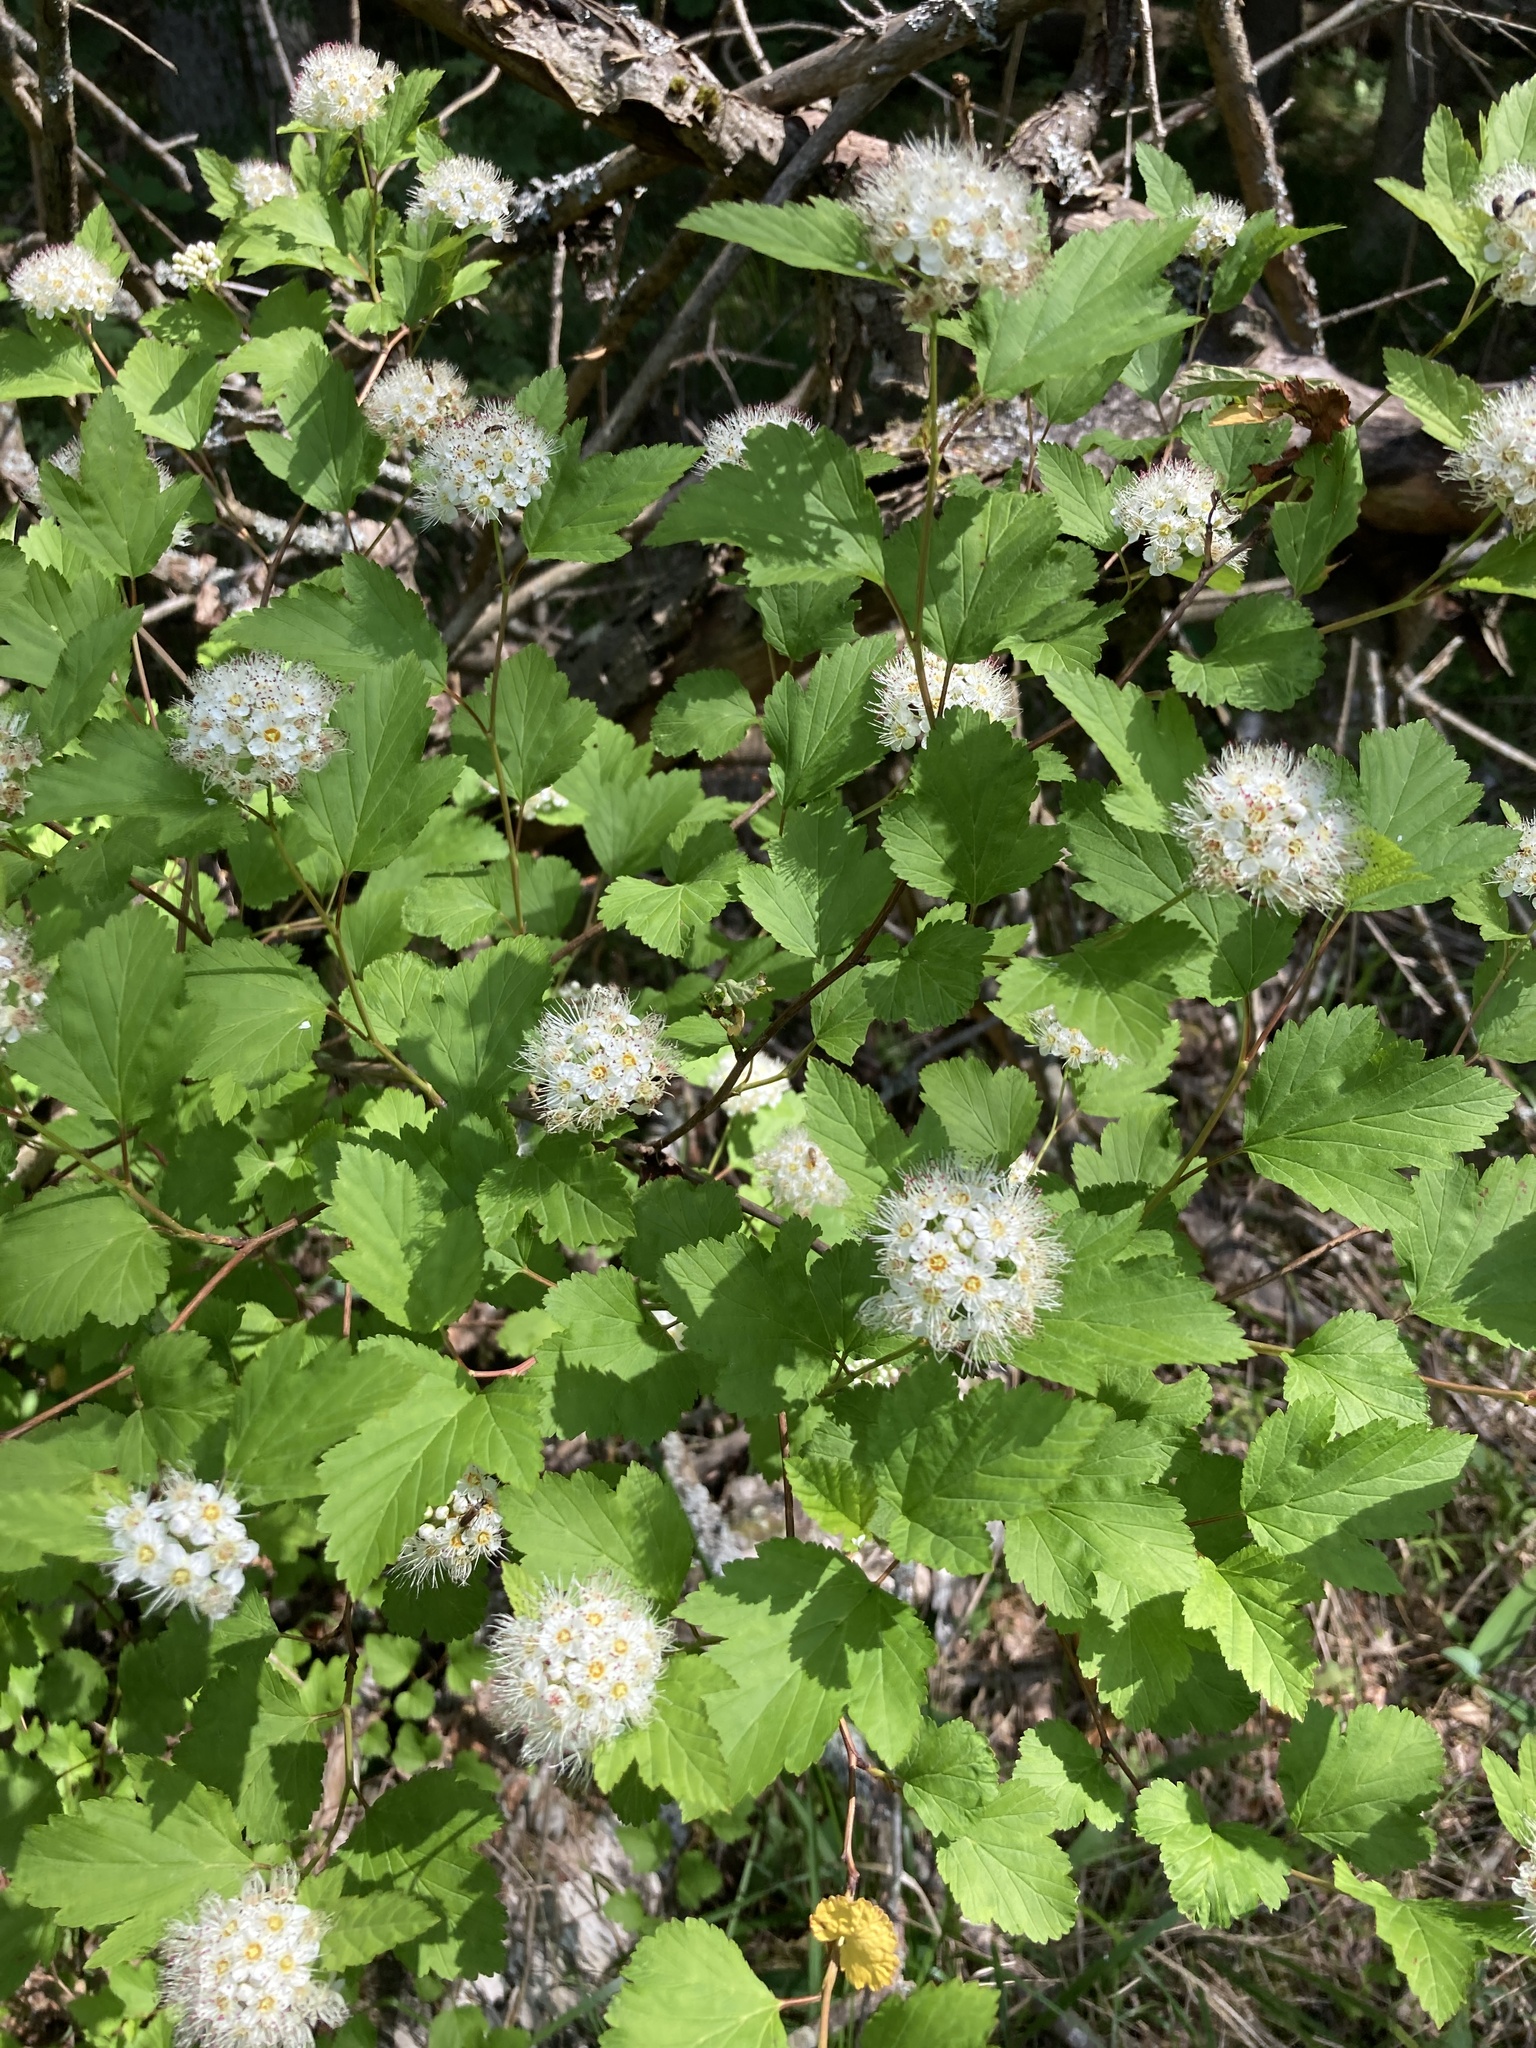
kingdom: Plantae
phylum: Tracheophyta
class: Magnoliopsida
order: Rosales
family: Rosaceae
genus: Physocarpus
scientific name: Physocarpus opulifolius
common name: Ninebark
